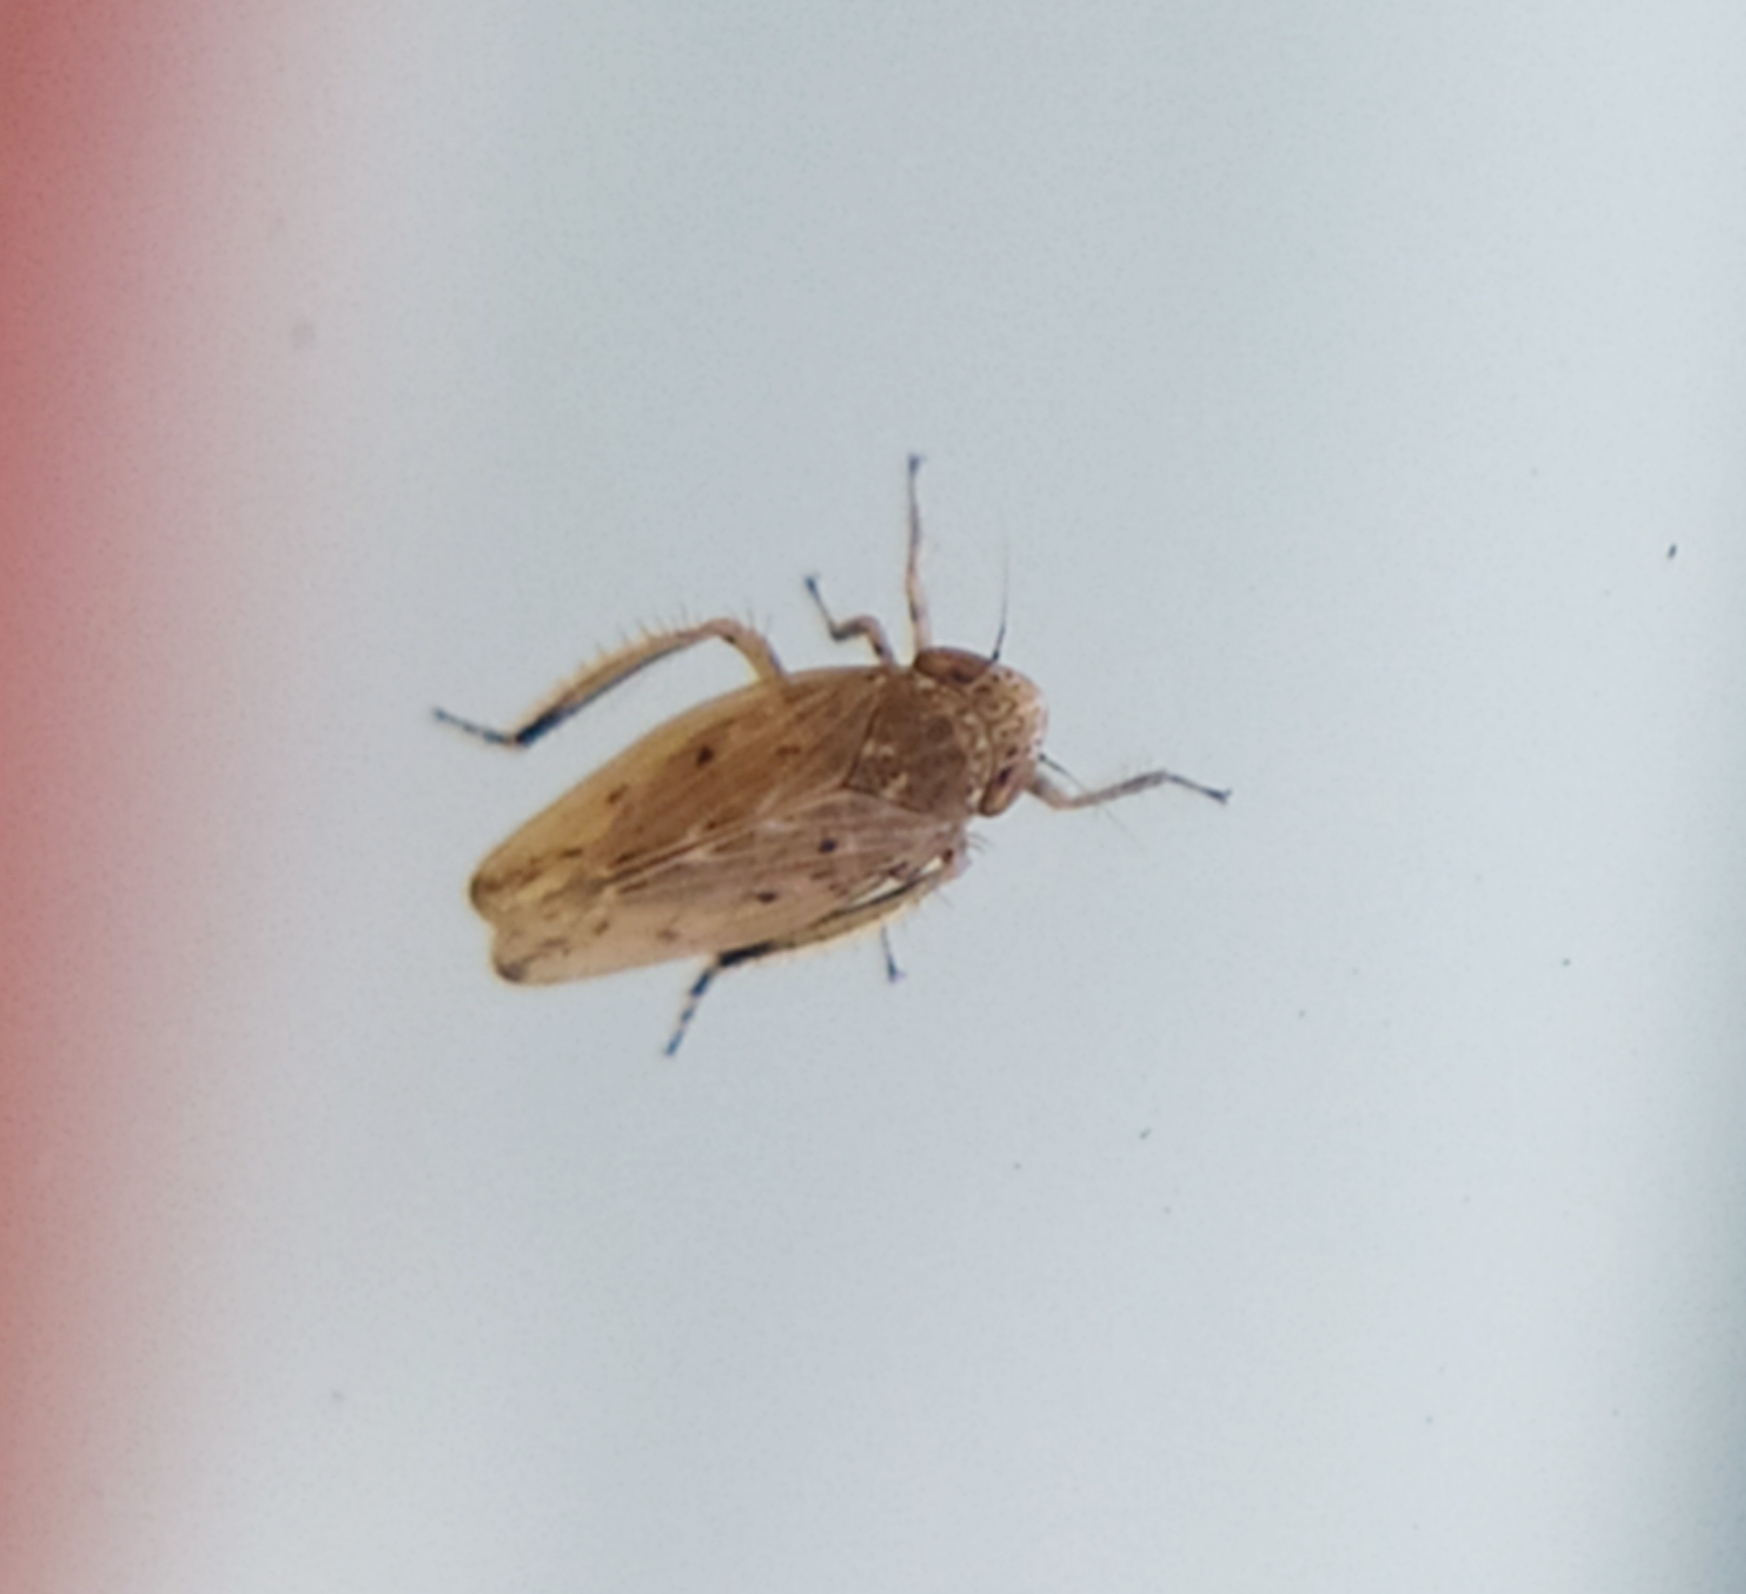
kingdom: Animalia
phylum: Arthropoda
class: Insecta
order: Hemiptera
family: Cicadellidae
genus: Hardya
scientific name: Hardya tenuis
